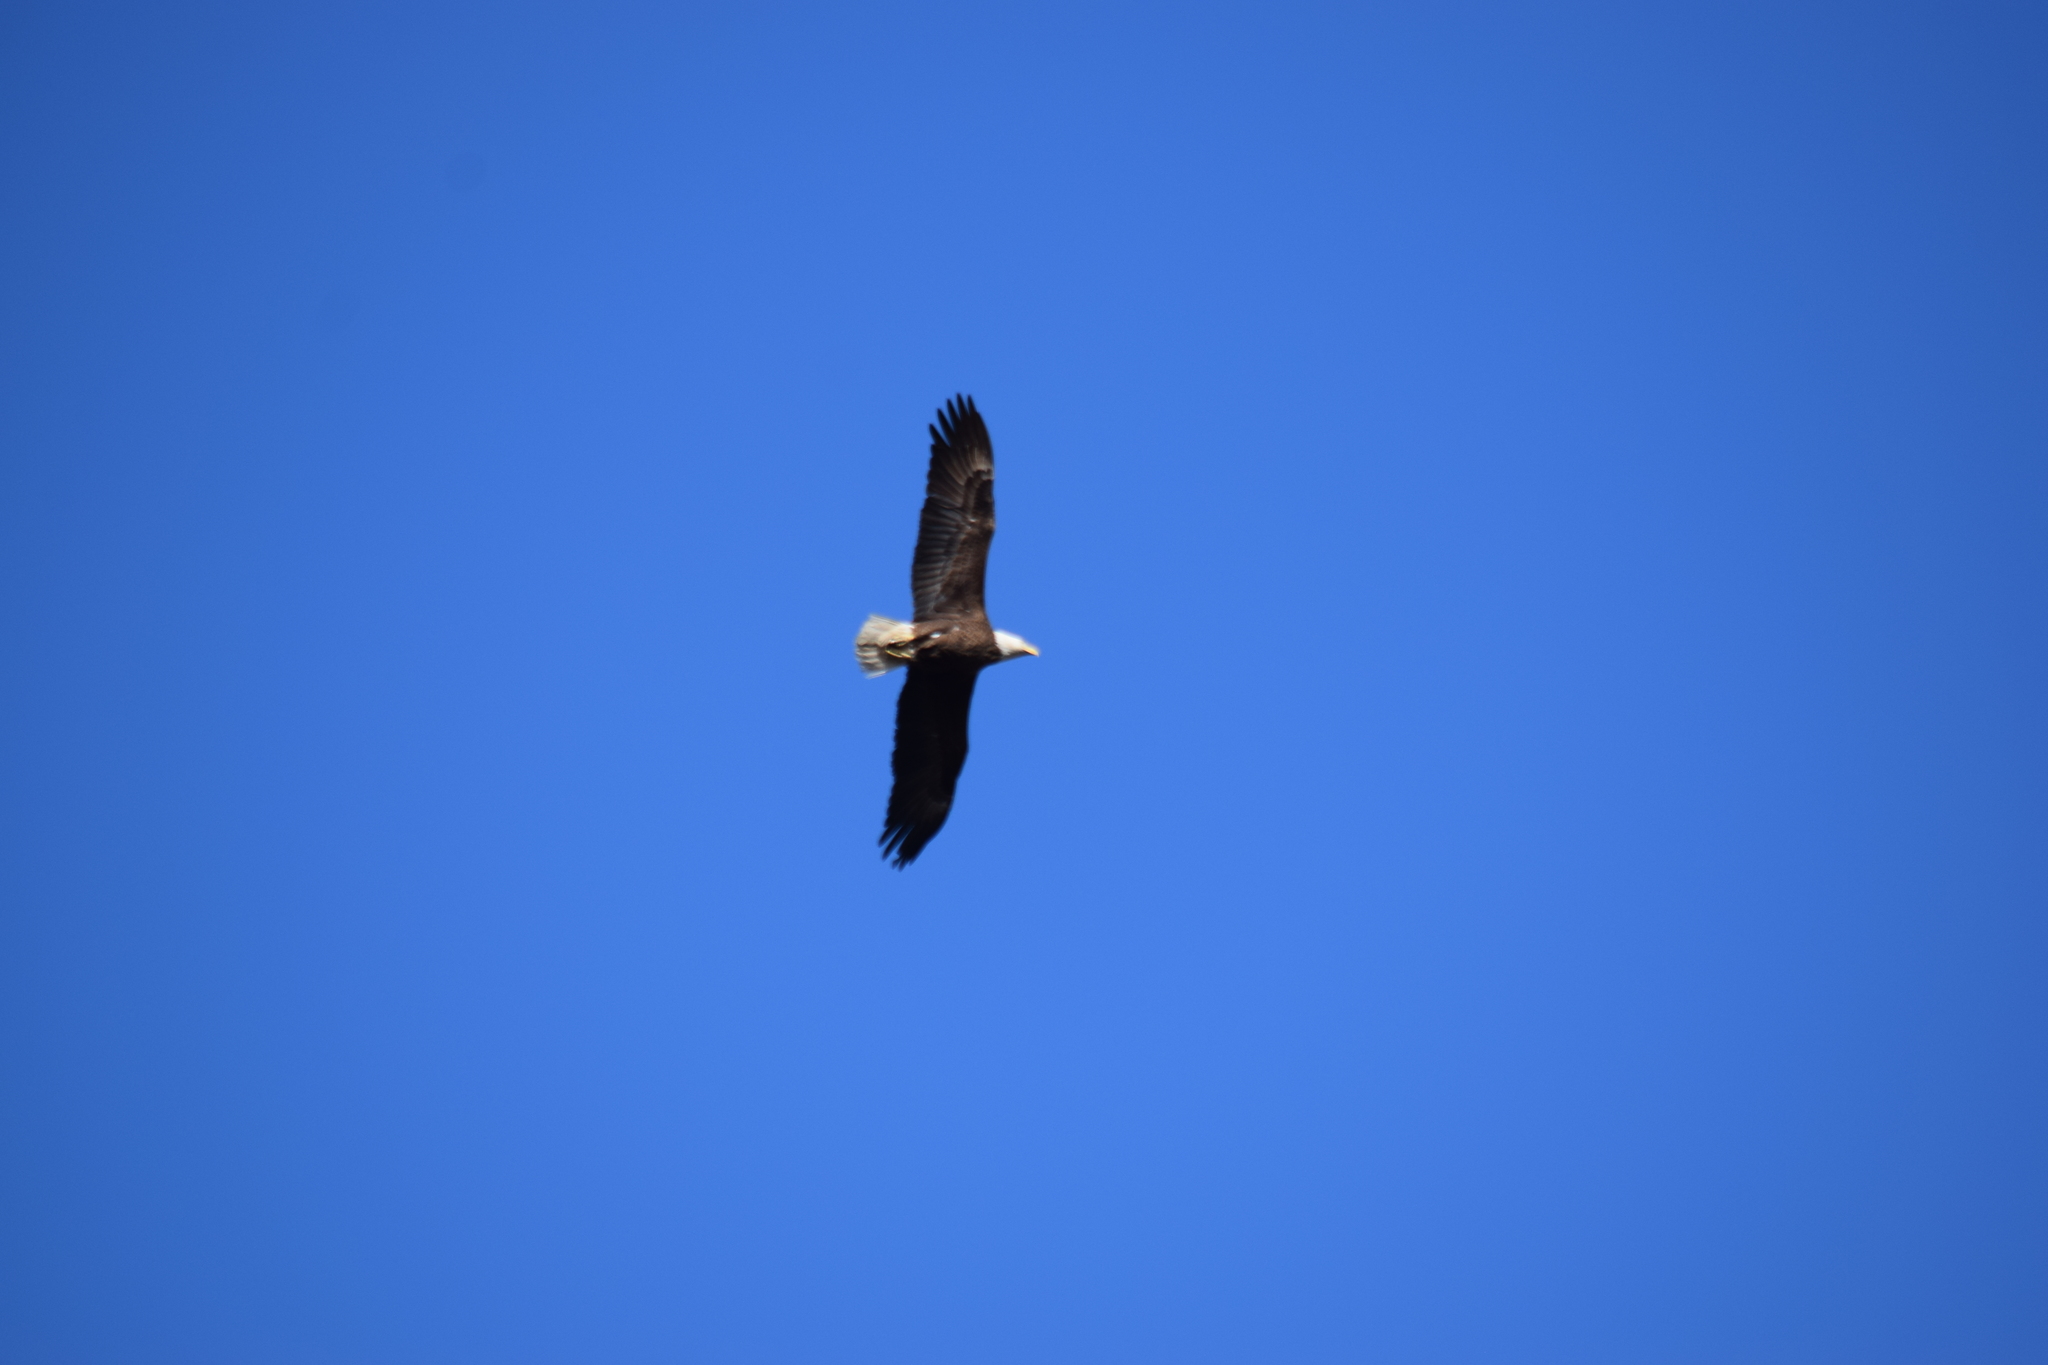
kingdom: Animalia
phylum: Chordata
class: Aves
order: Accipitriformes
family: Accipitridae
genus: Haliaeetus
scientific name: Haliaeetus leucocephalus
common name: Bald eagle
